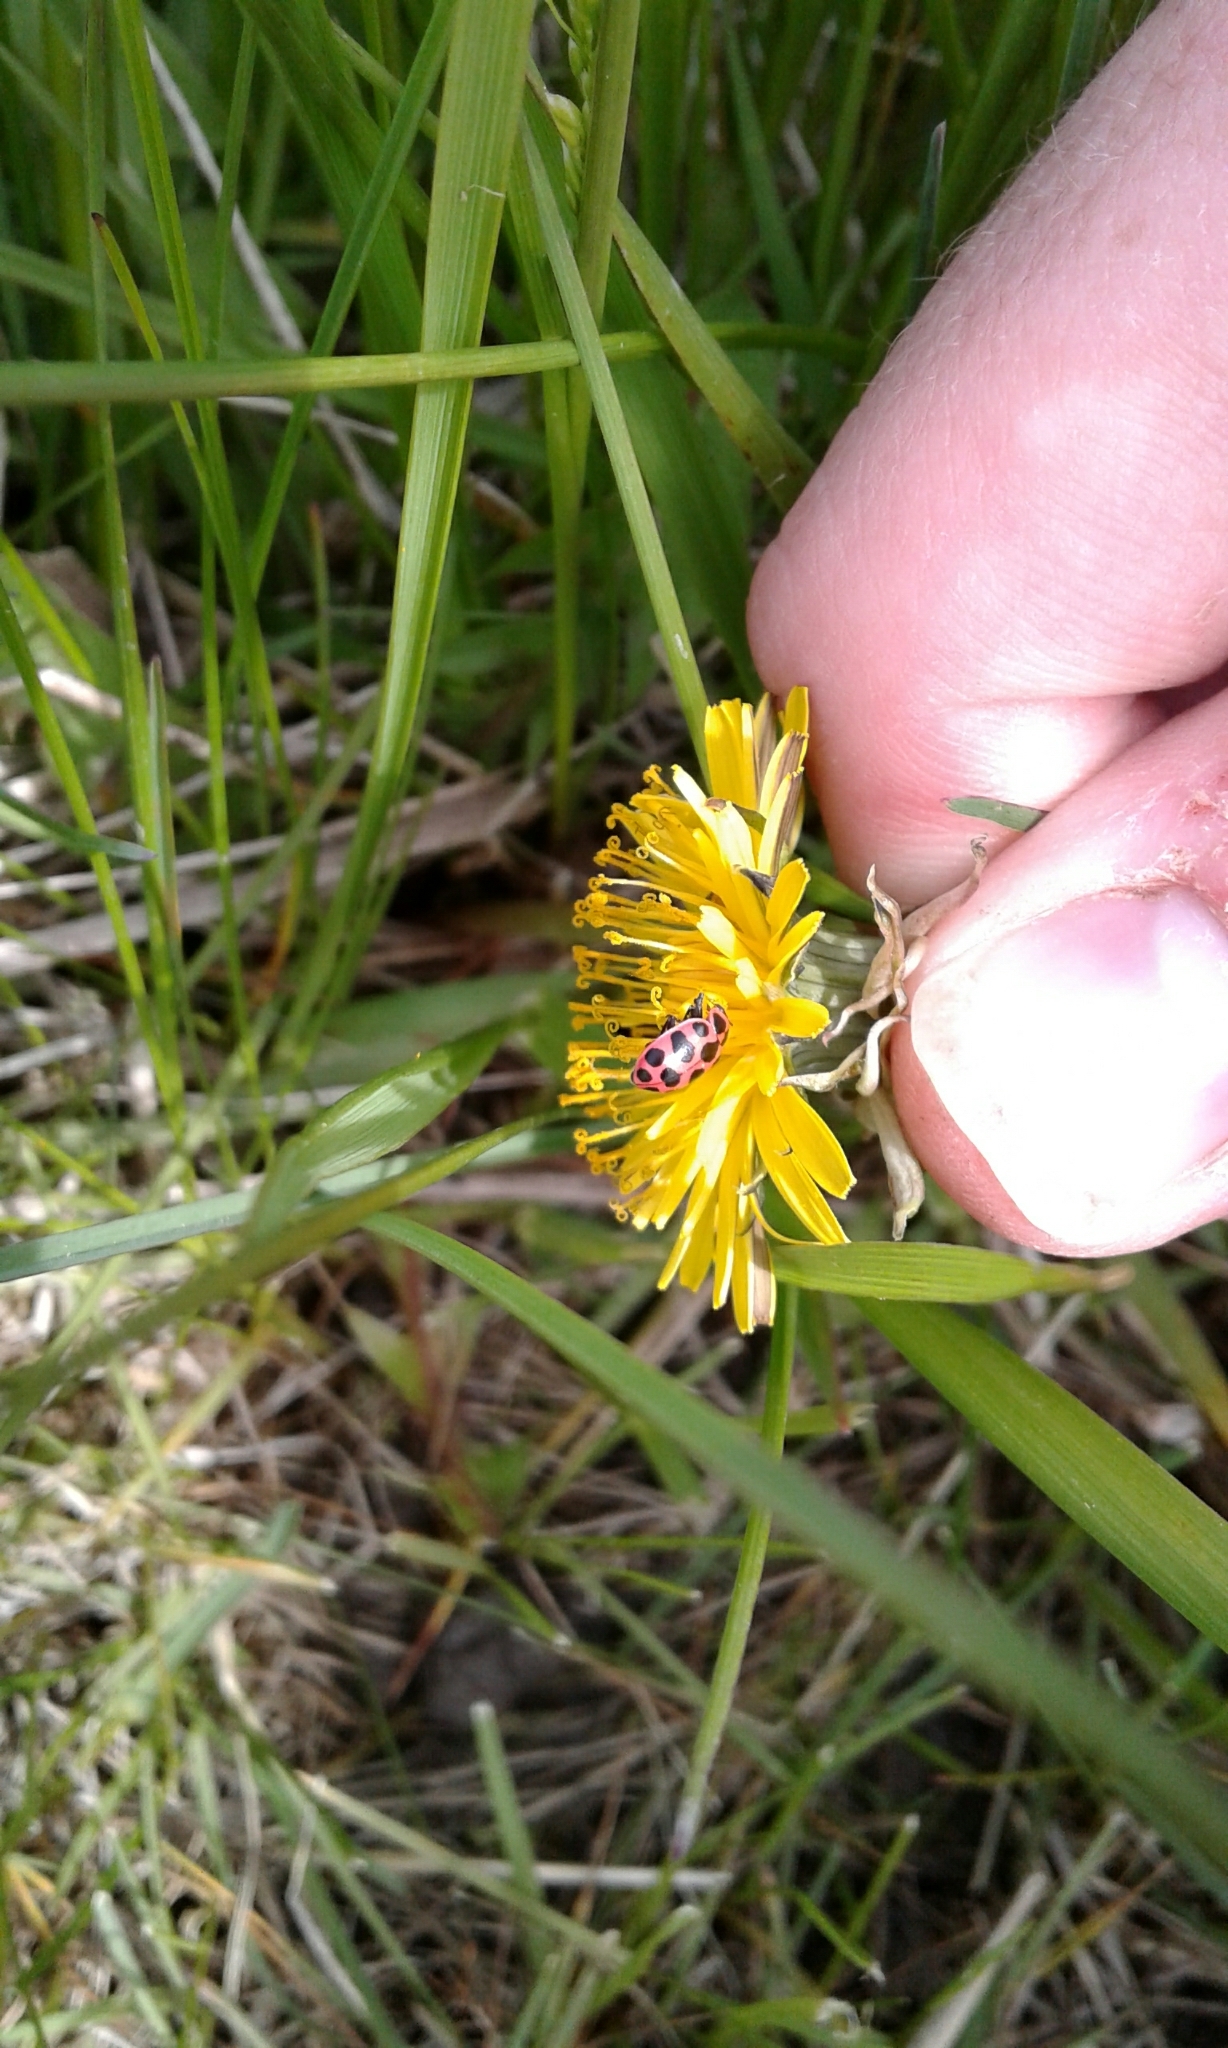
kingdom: Animalia
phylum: Arthropoda
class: Insecta
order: Coleoptera
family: Coccinellidae
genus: Coleomegilla
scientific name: Coleomegilla maculata
